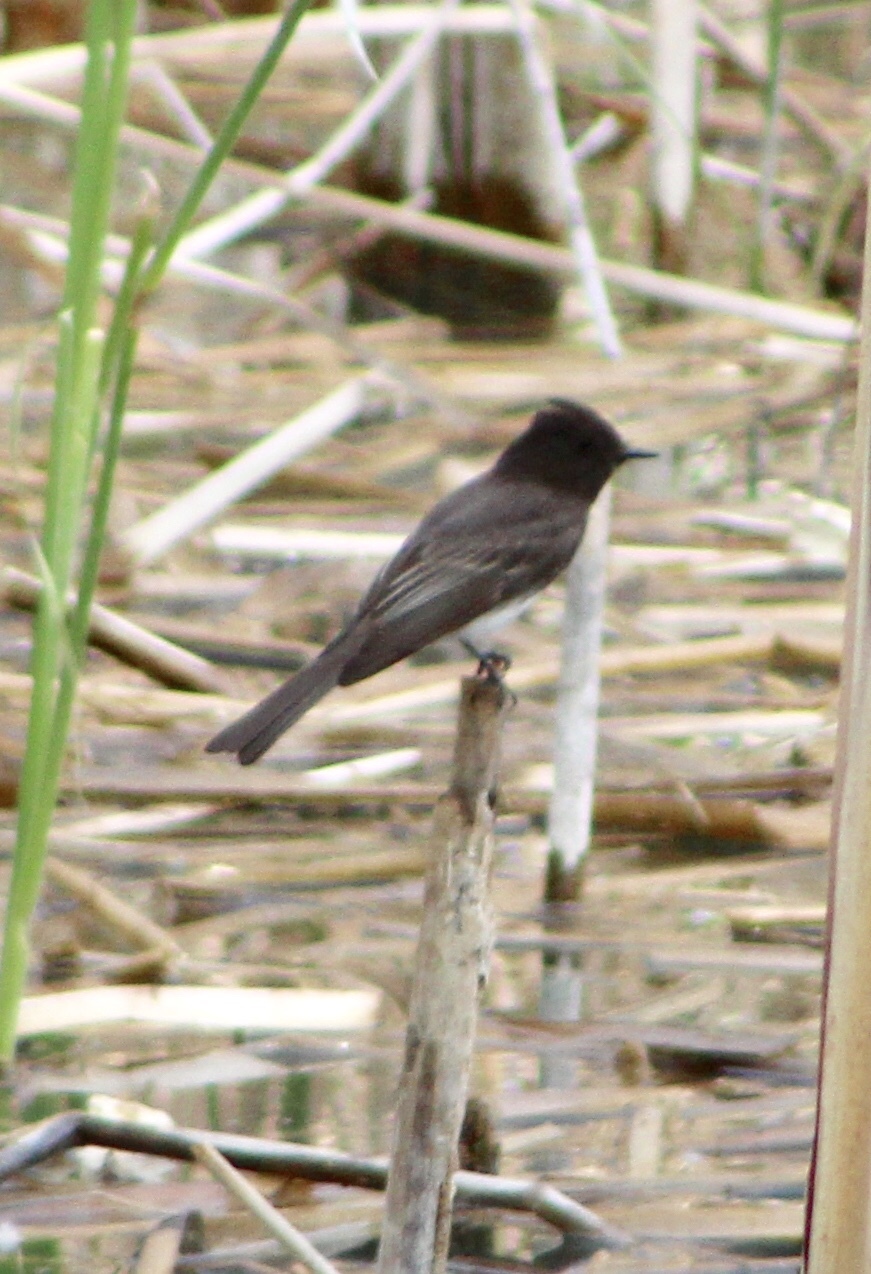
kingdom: Animalia
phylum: Chordata
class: Aves
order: Passeriformes
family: Tyrannidae
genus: Sayornis
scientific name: Sayornis nigricans
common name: Black phoebe
